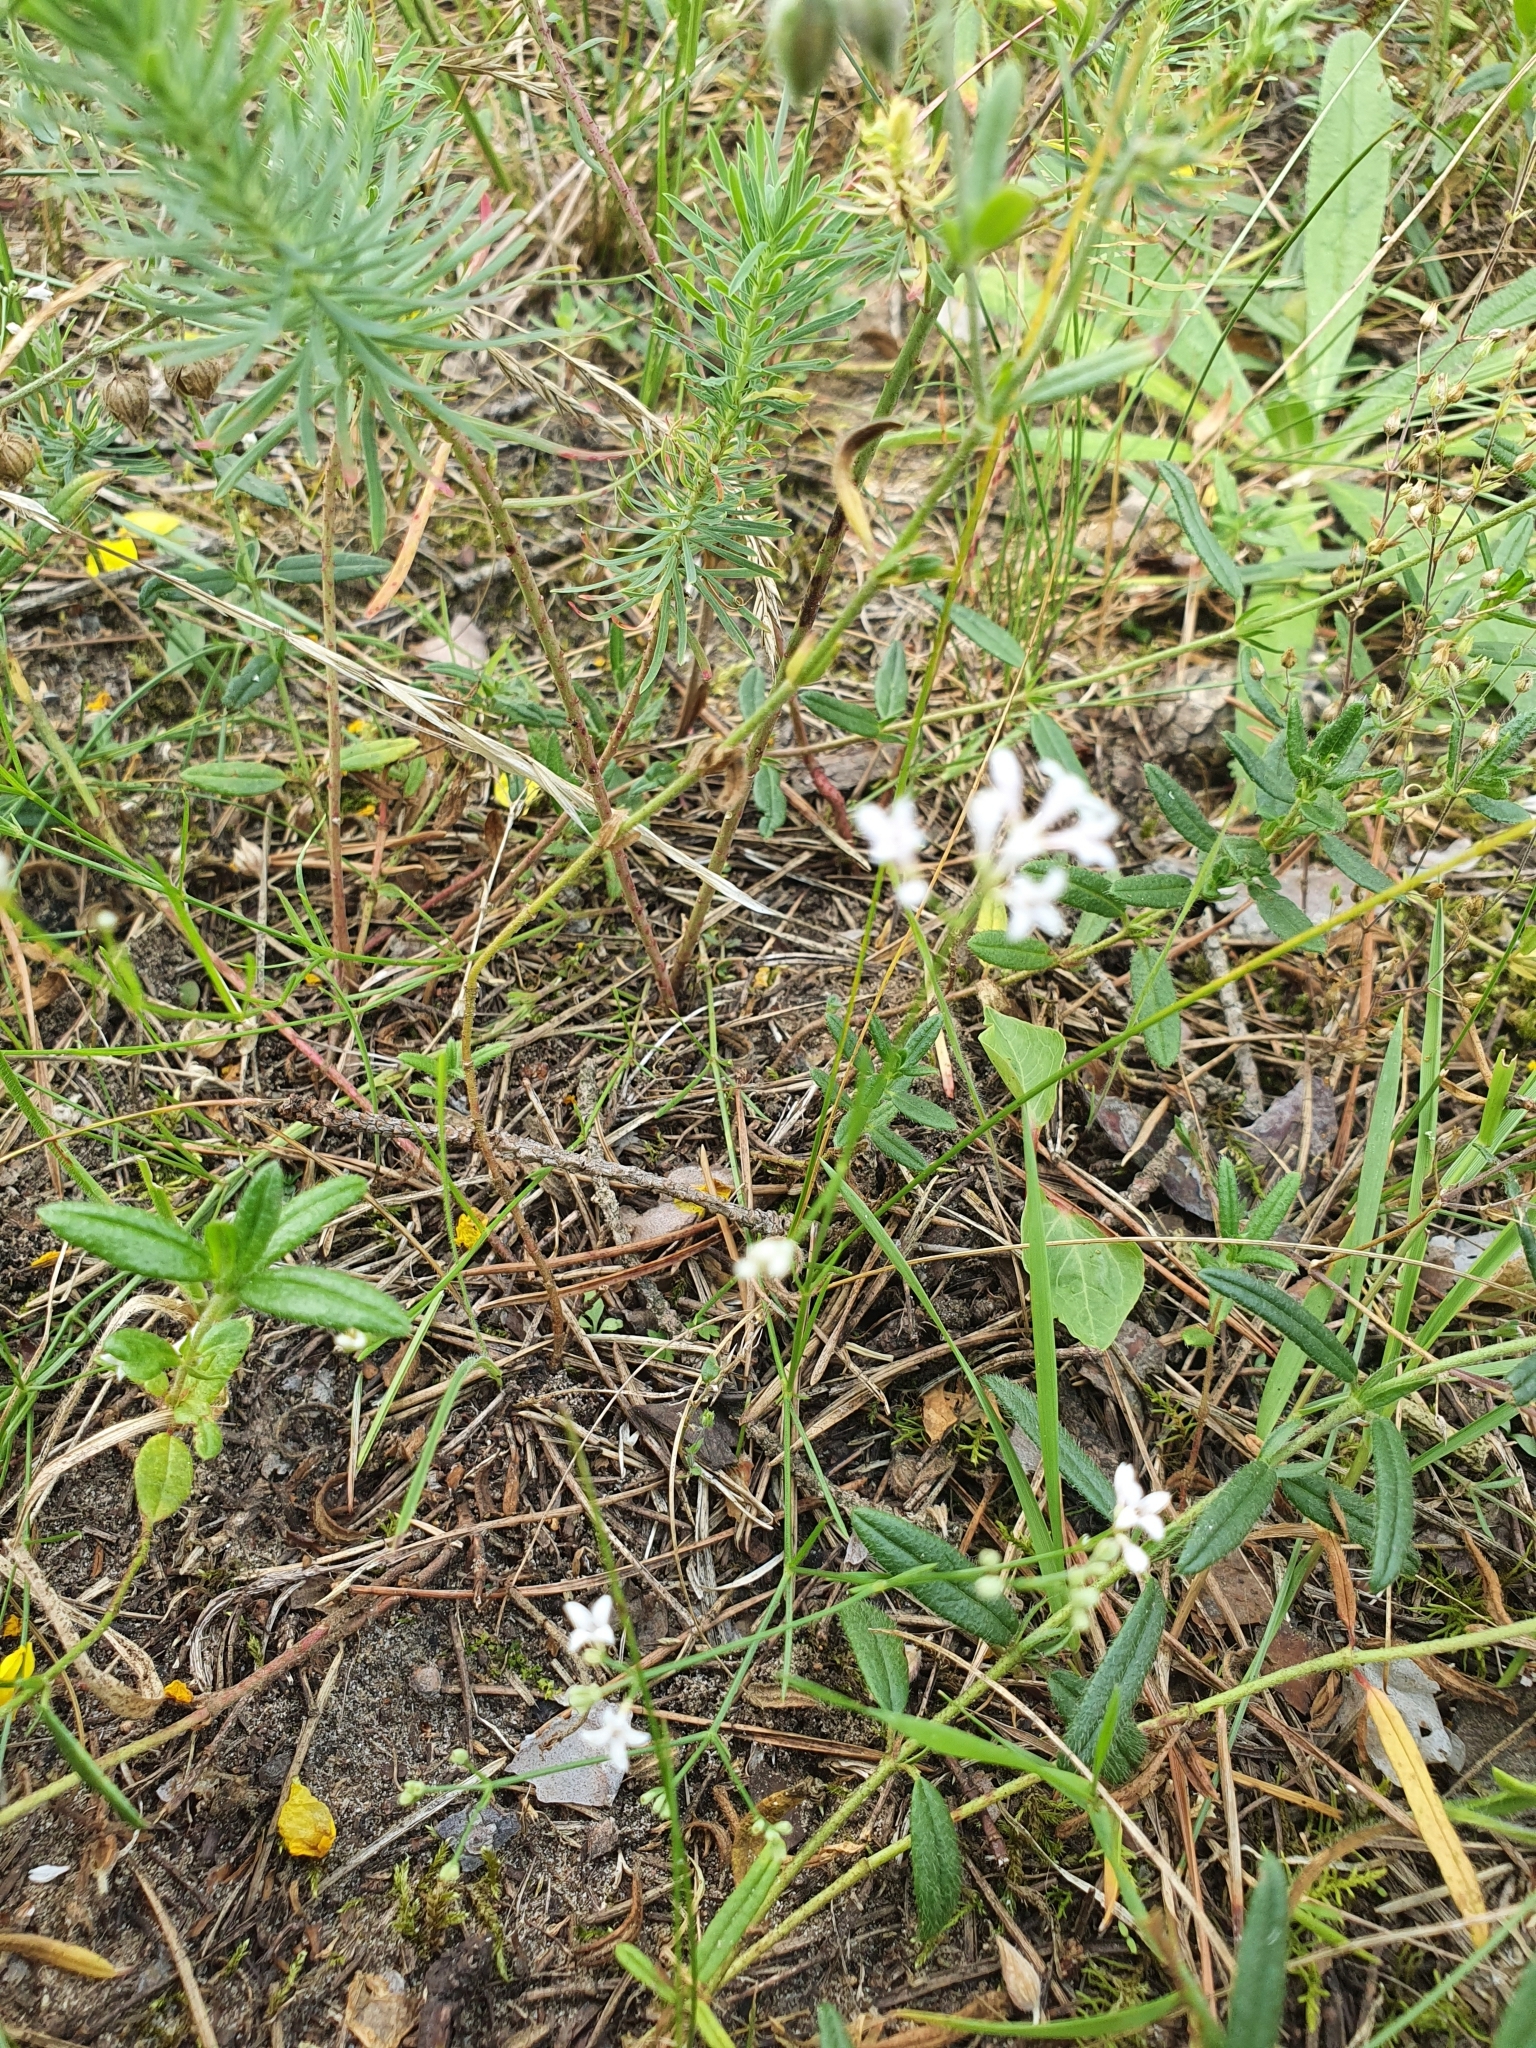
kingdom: Plantae
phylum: Tracheophyta
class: Magnoliopsida
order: Gentianales
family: Rubiaceae
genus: Cynanchica
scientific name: Cynanchica pyrenaica
